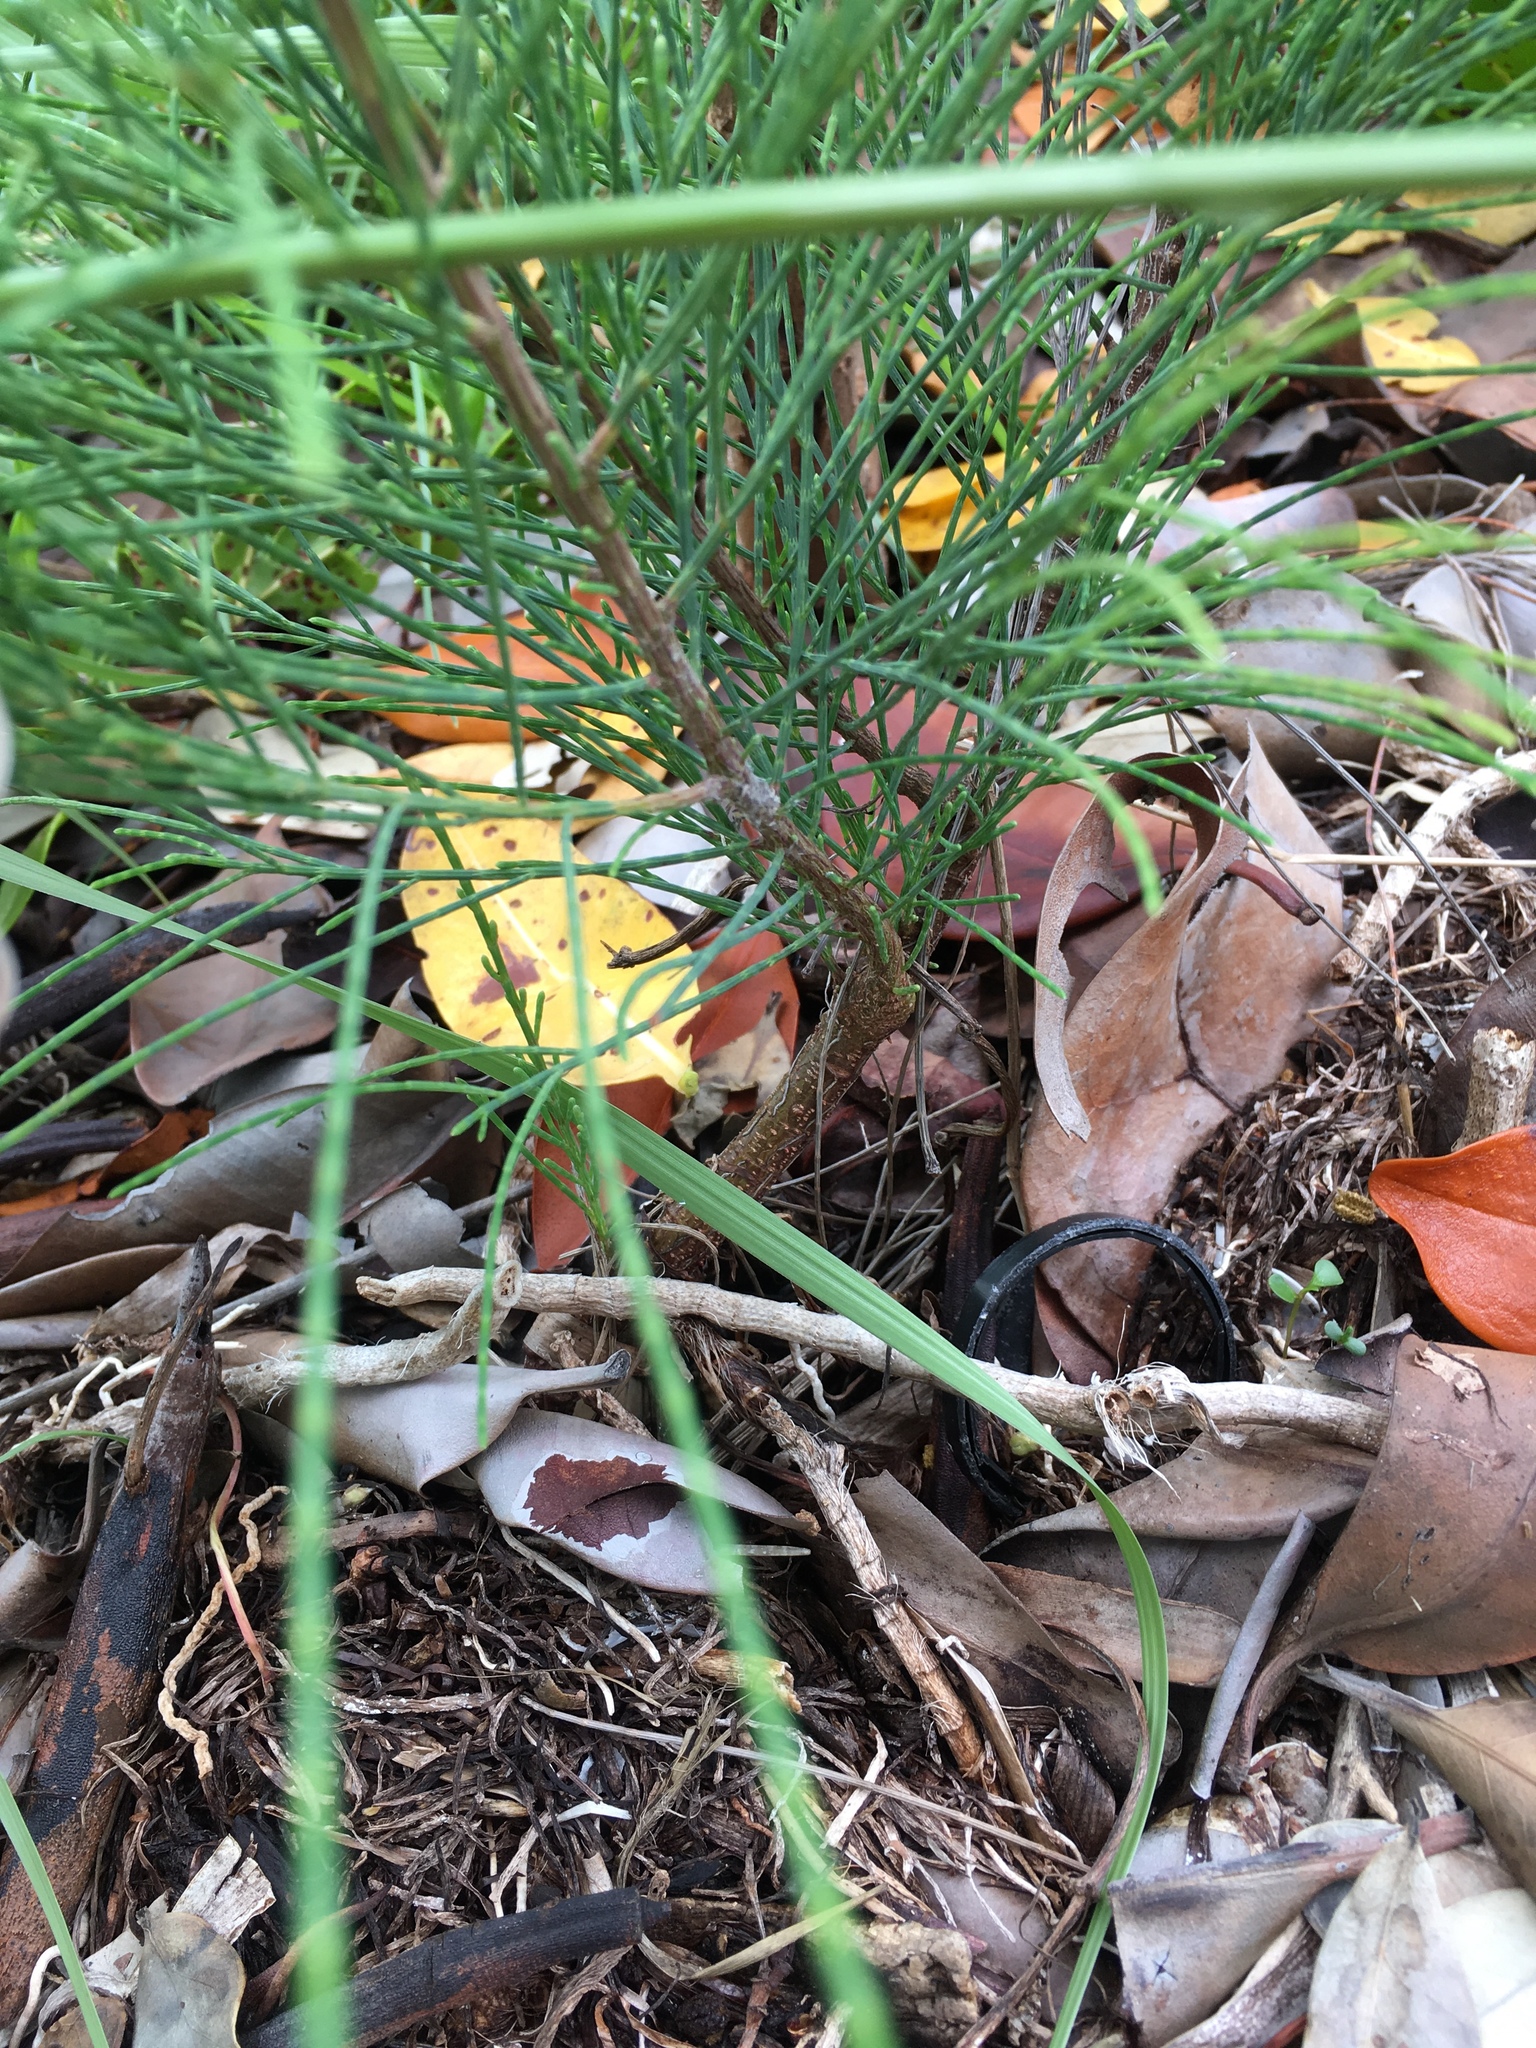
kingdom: Plantae
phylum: Tracheophyta
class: Magnoliopsida
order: Fagales
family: Casuarinaceae
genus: Casuarina
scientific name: Casuarina equisetifolia
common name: Beach sheoak
